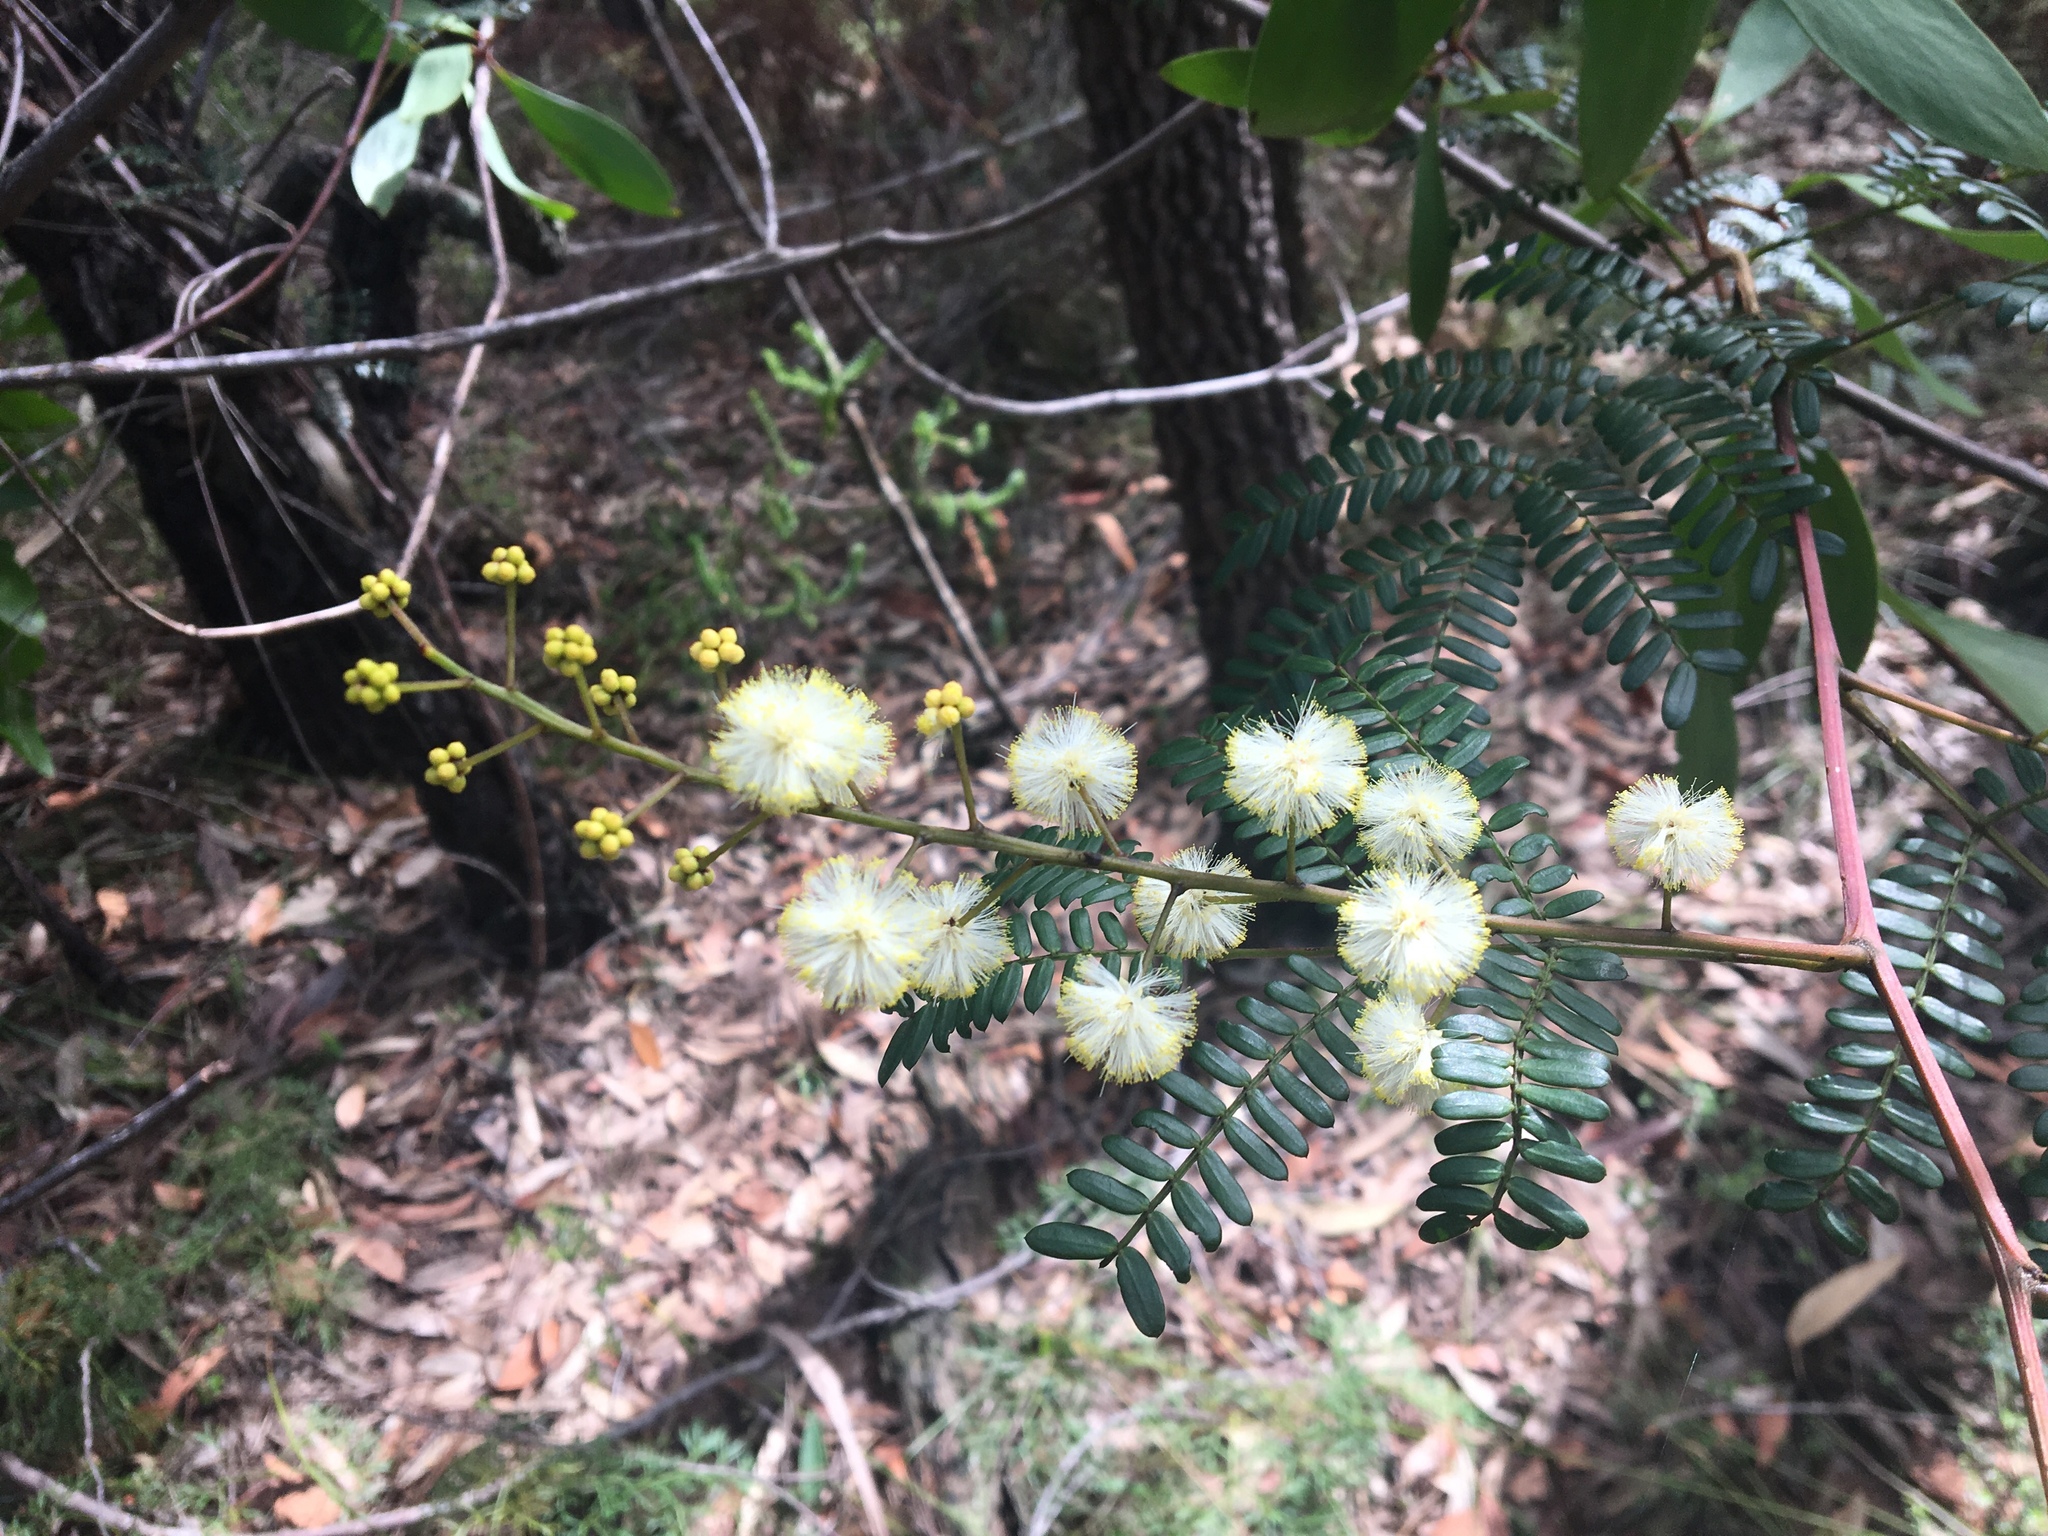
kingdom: Plantae
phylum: Tracheophyta
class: Magnoliopsida
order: Fabales
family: Fabaceae
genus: Acacia
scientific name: Acacia terminalis
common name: Cedar wattle
